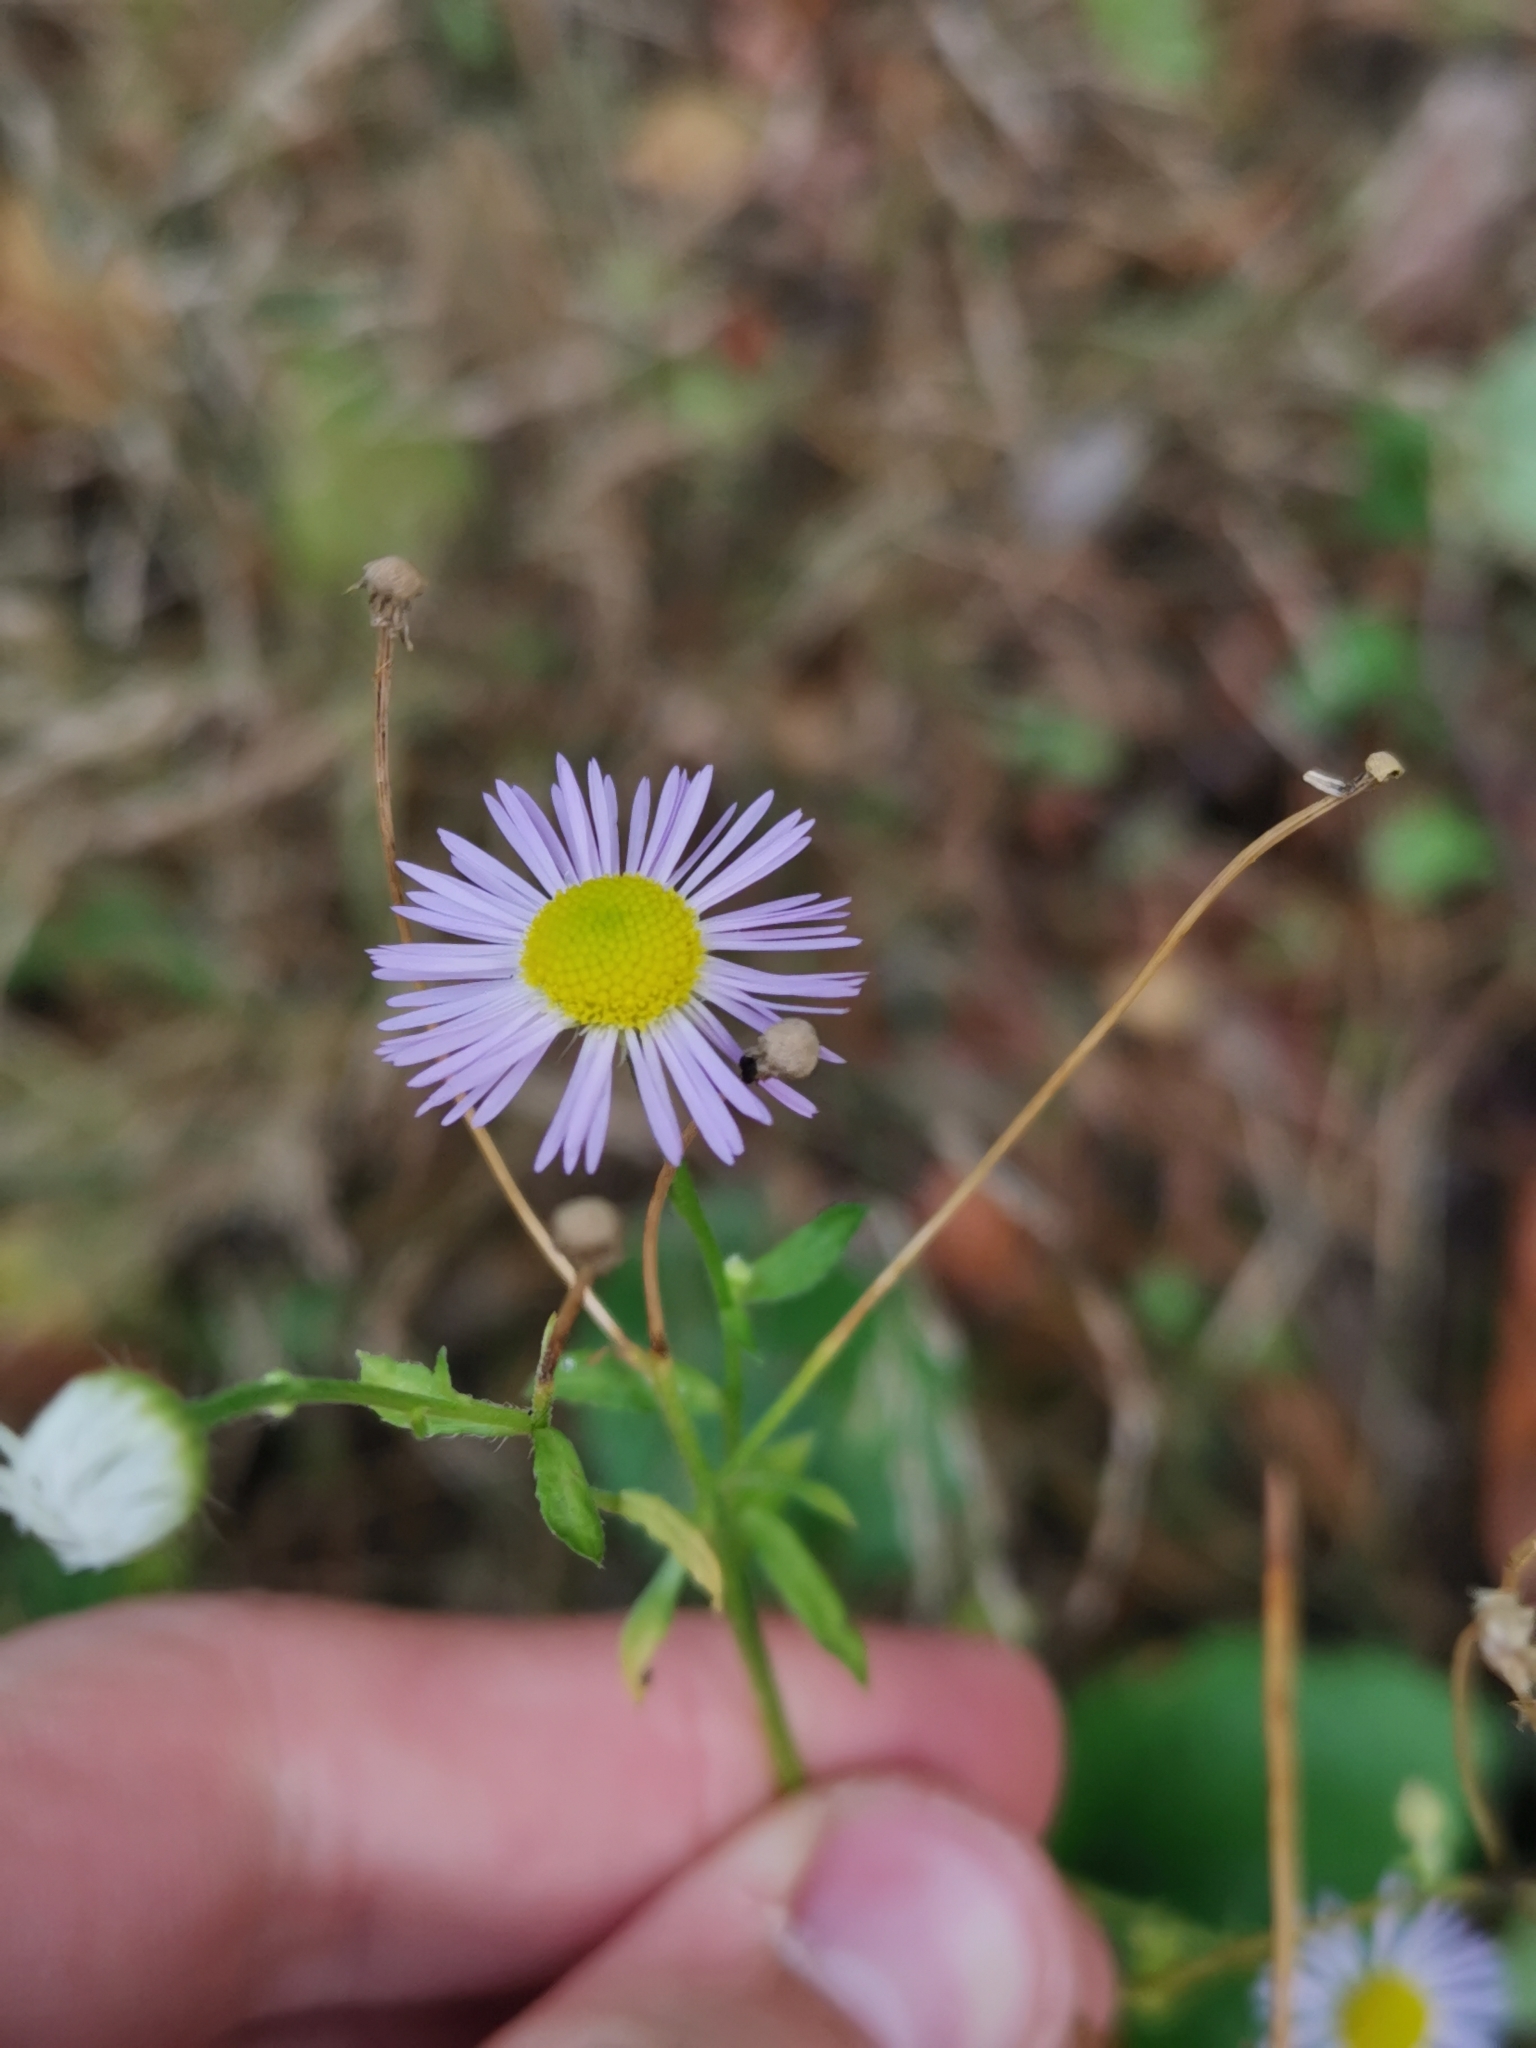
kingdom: Plantae
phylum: Tracheophyta
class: Magnoliopsida
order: Asterales
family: Asteraceae
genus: Erigeron
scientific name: Erigeron annuus
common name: Tall fleabane
